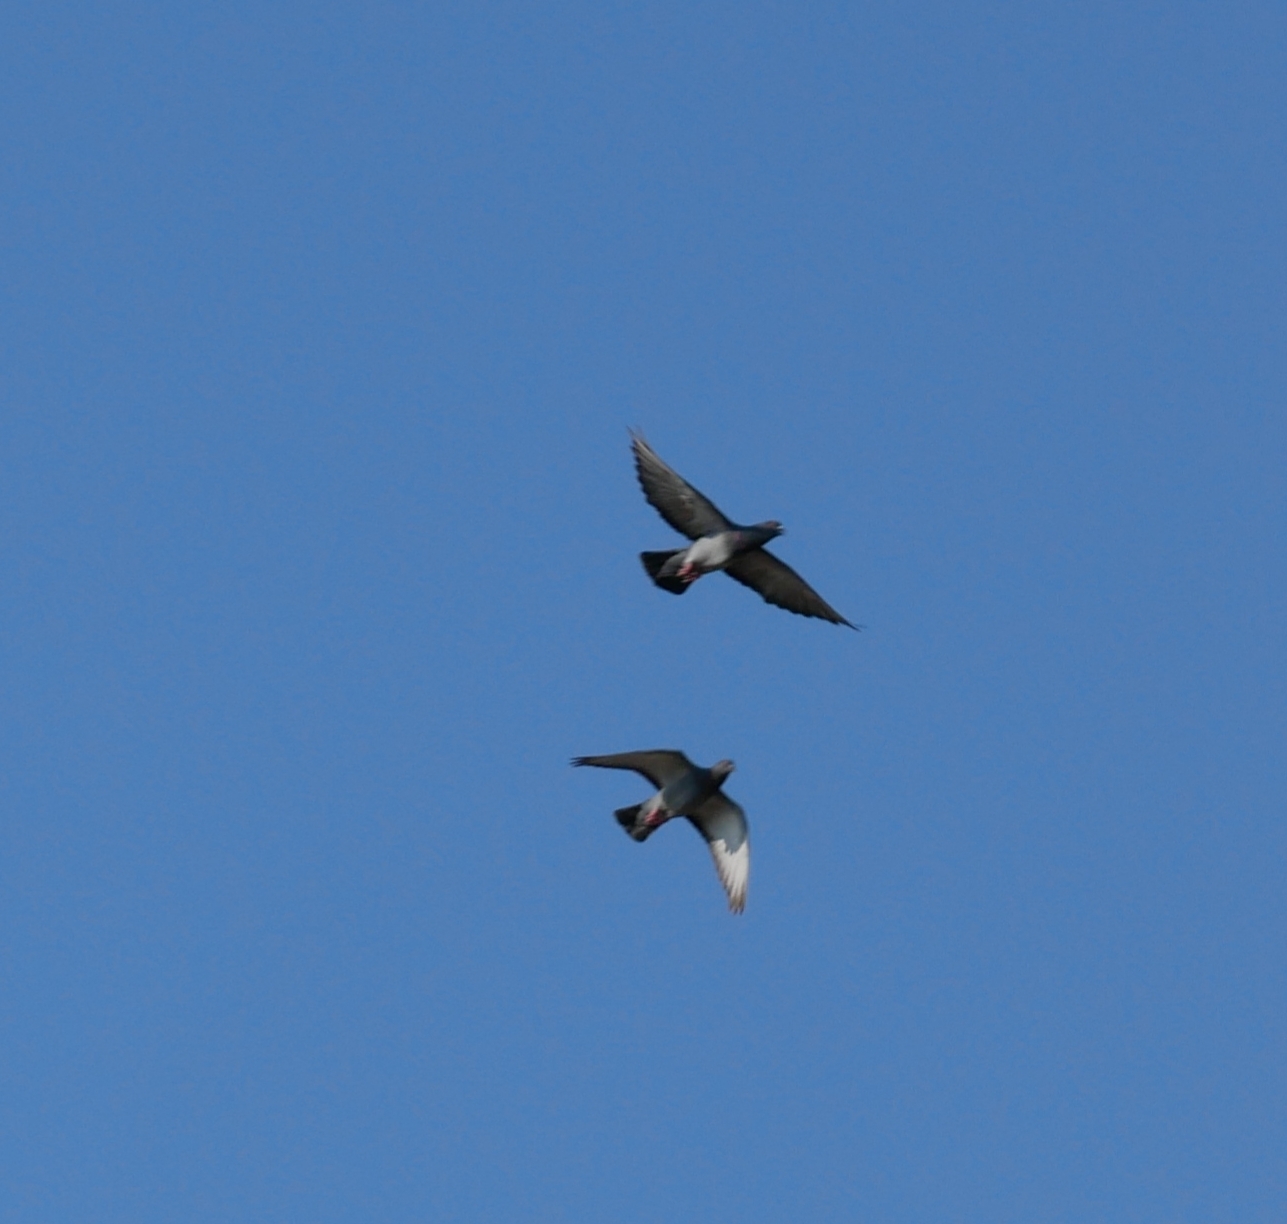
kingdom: Animalia
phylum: Chordata
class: Aves
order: Columbiformes
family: Columbidae
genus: Columba
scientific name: Columba livia
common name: Rock pigeon
